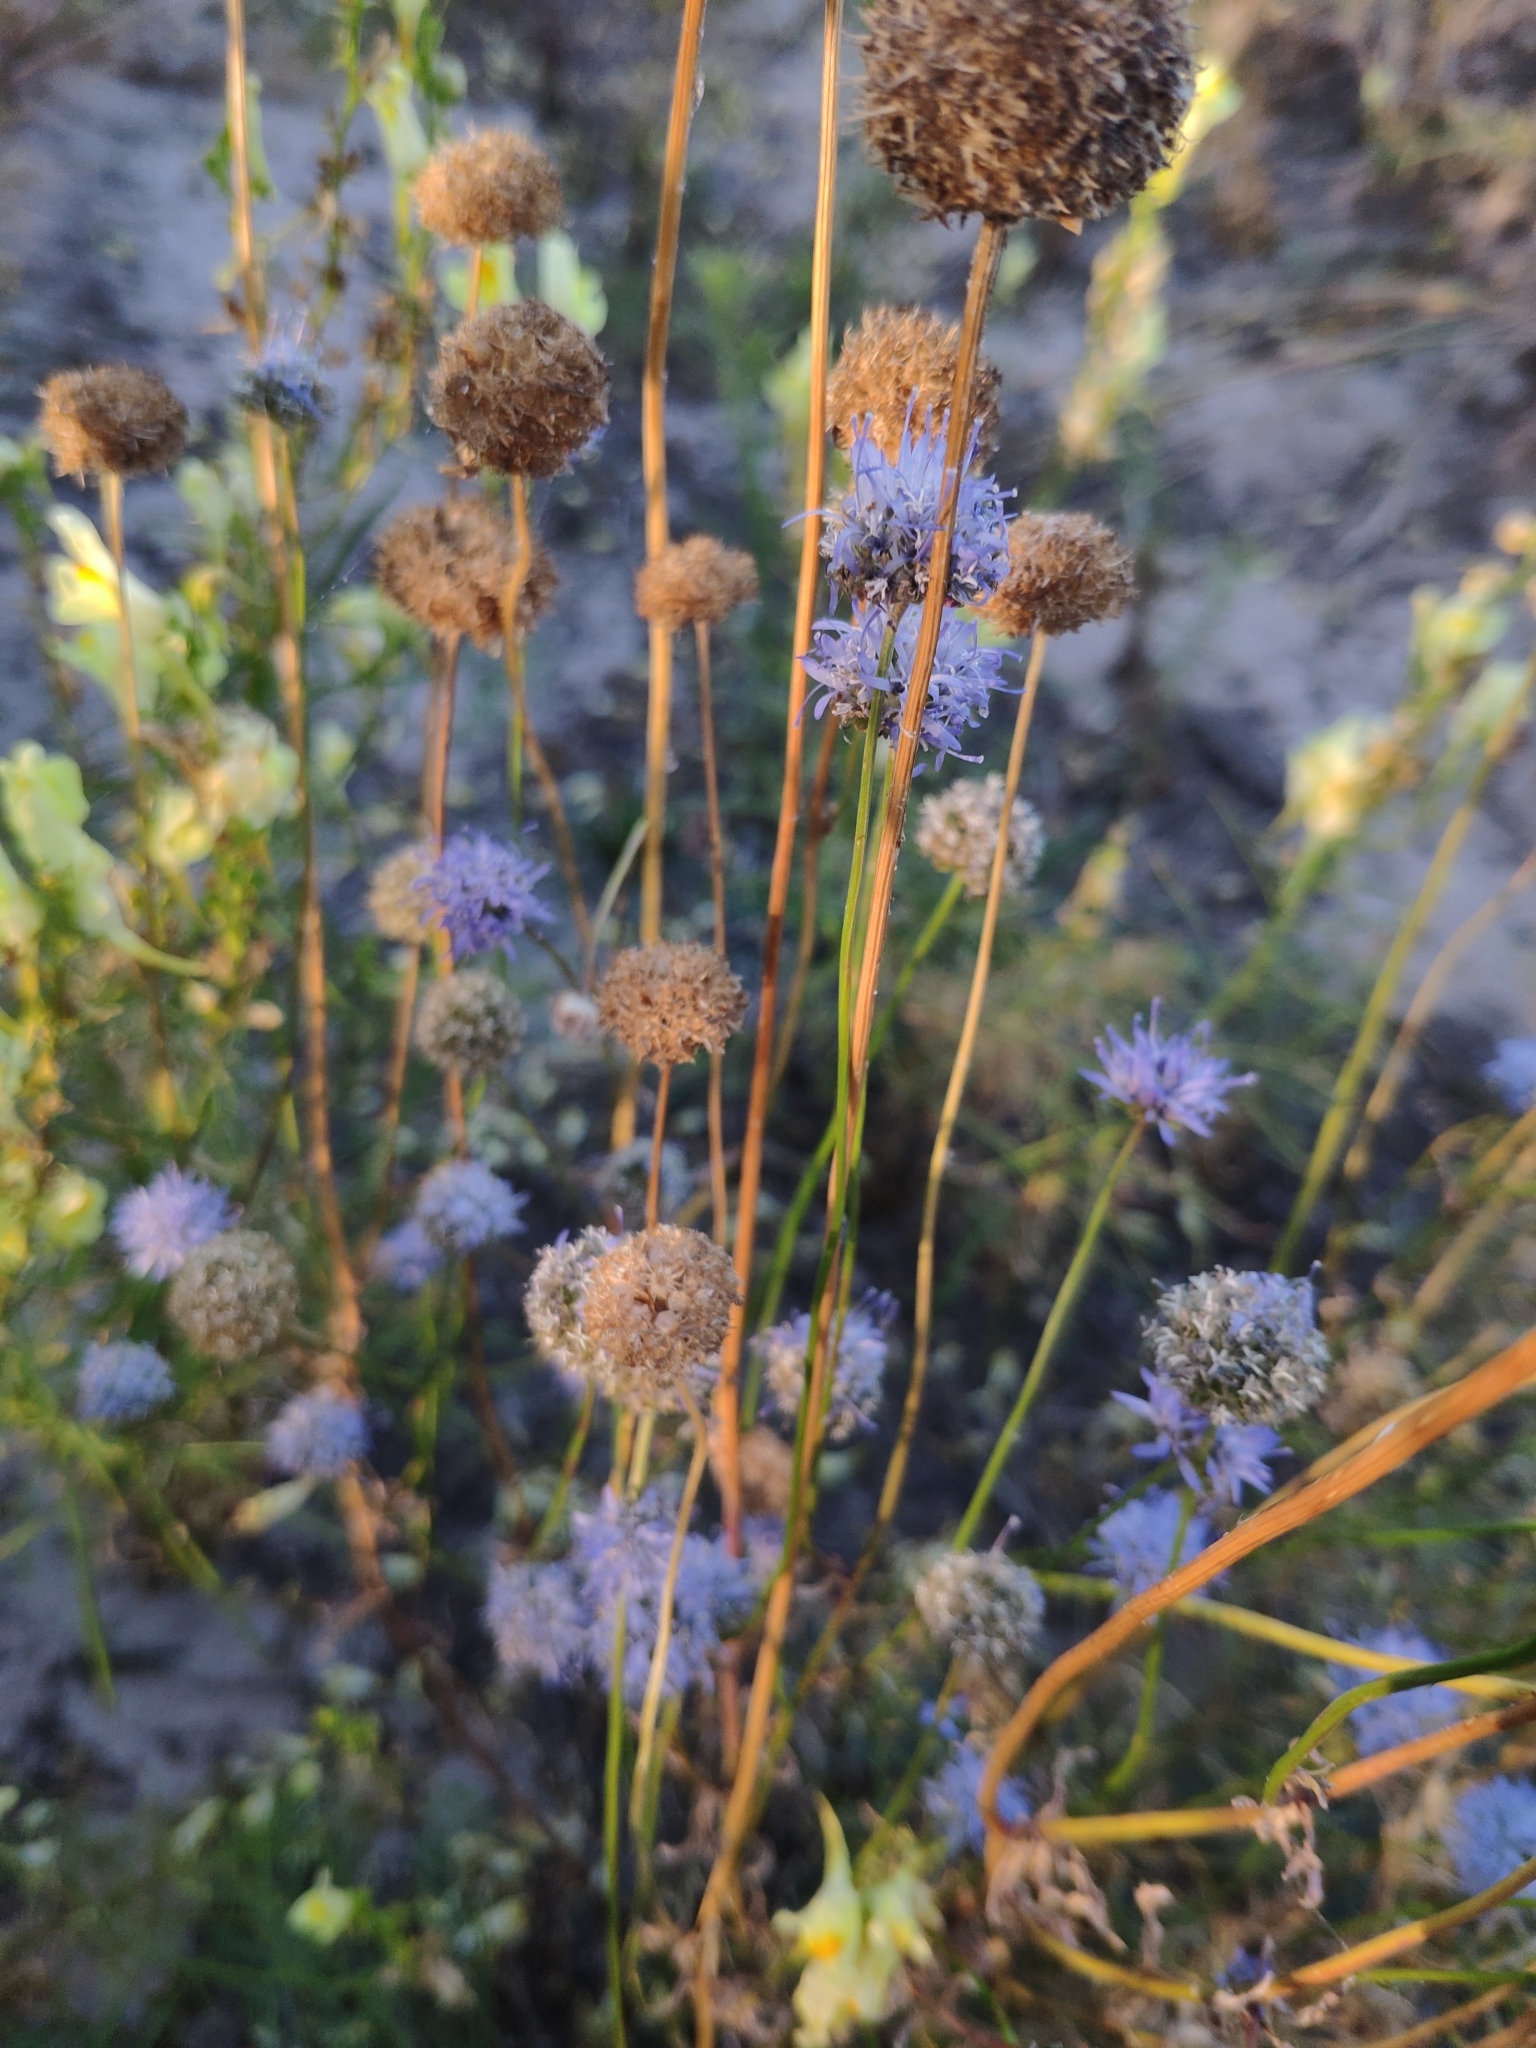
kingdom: Plantae
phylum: Tracheophyta
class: Magnoliopsida
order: Asterales
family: Campanulaceae
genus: Jasione
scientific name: Jasione montana
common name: Sheep's-bit
